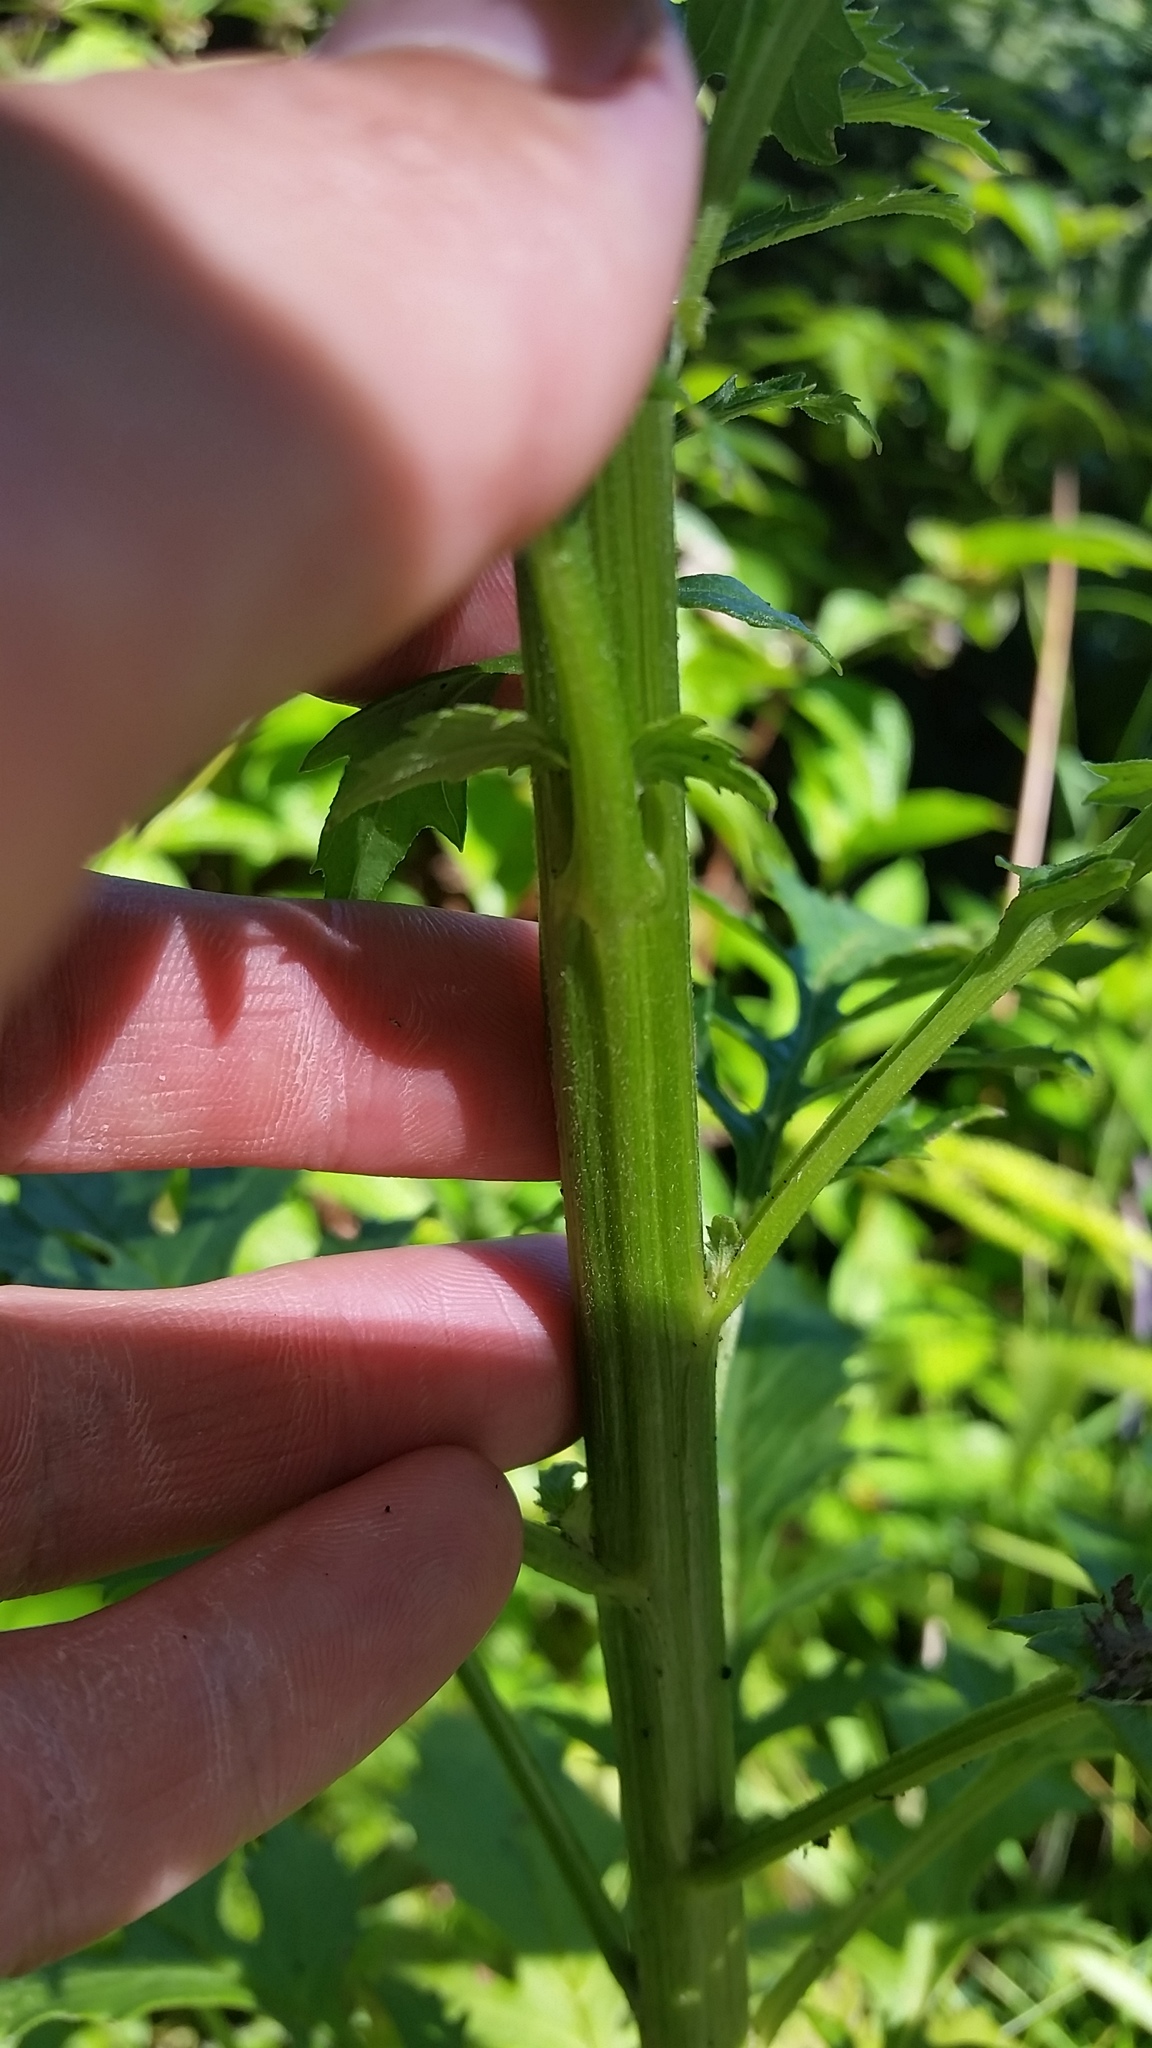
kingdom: Plantae
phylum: Tracheophyta
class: Magnoliopsida
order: Asterales
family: Asteraceae
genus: Erechtites
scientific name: Erechtites valerianifolius
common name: Tropical burnweed
